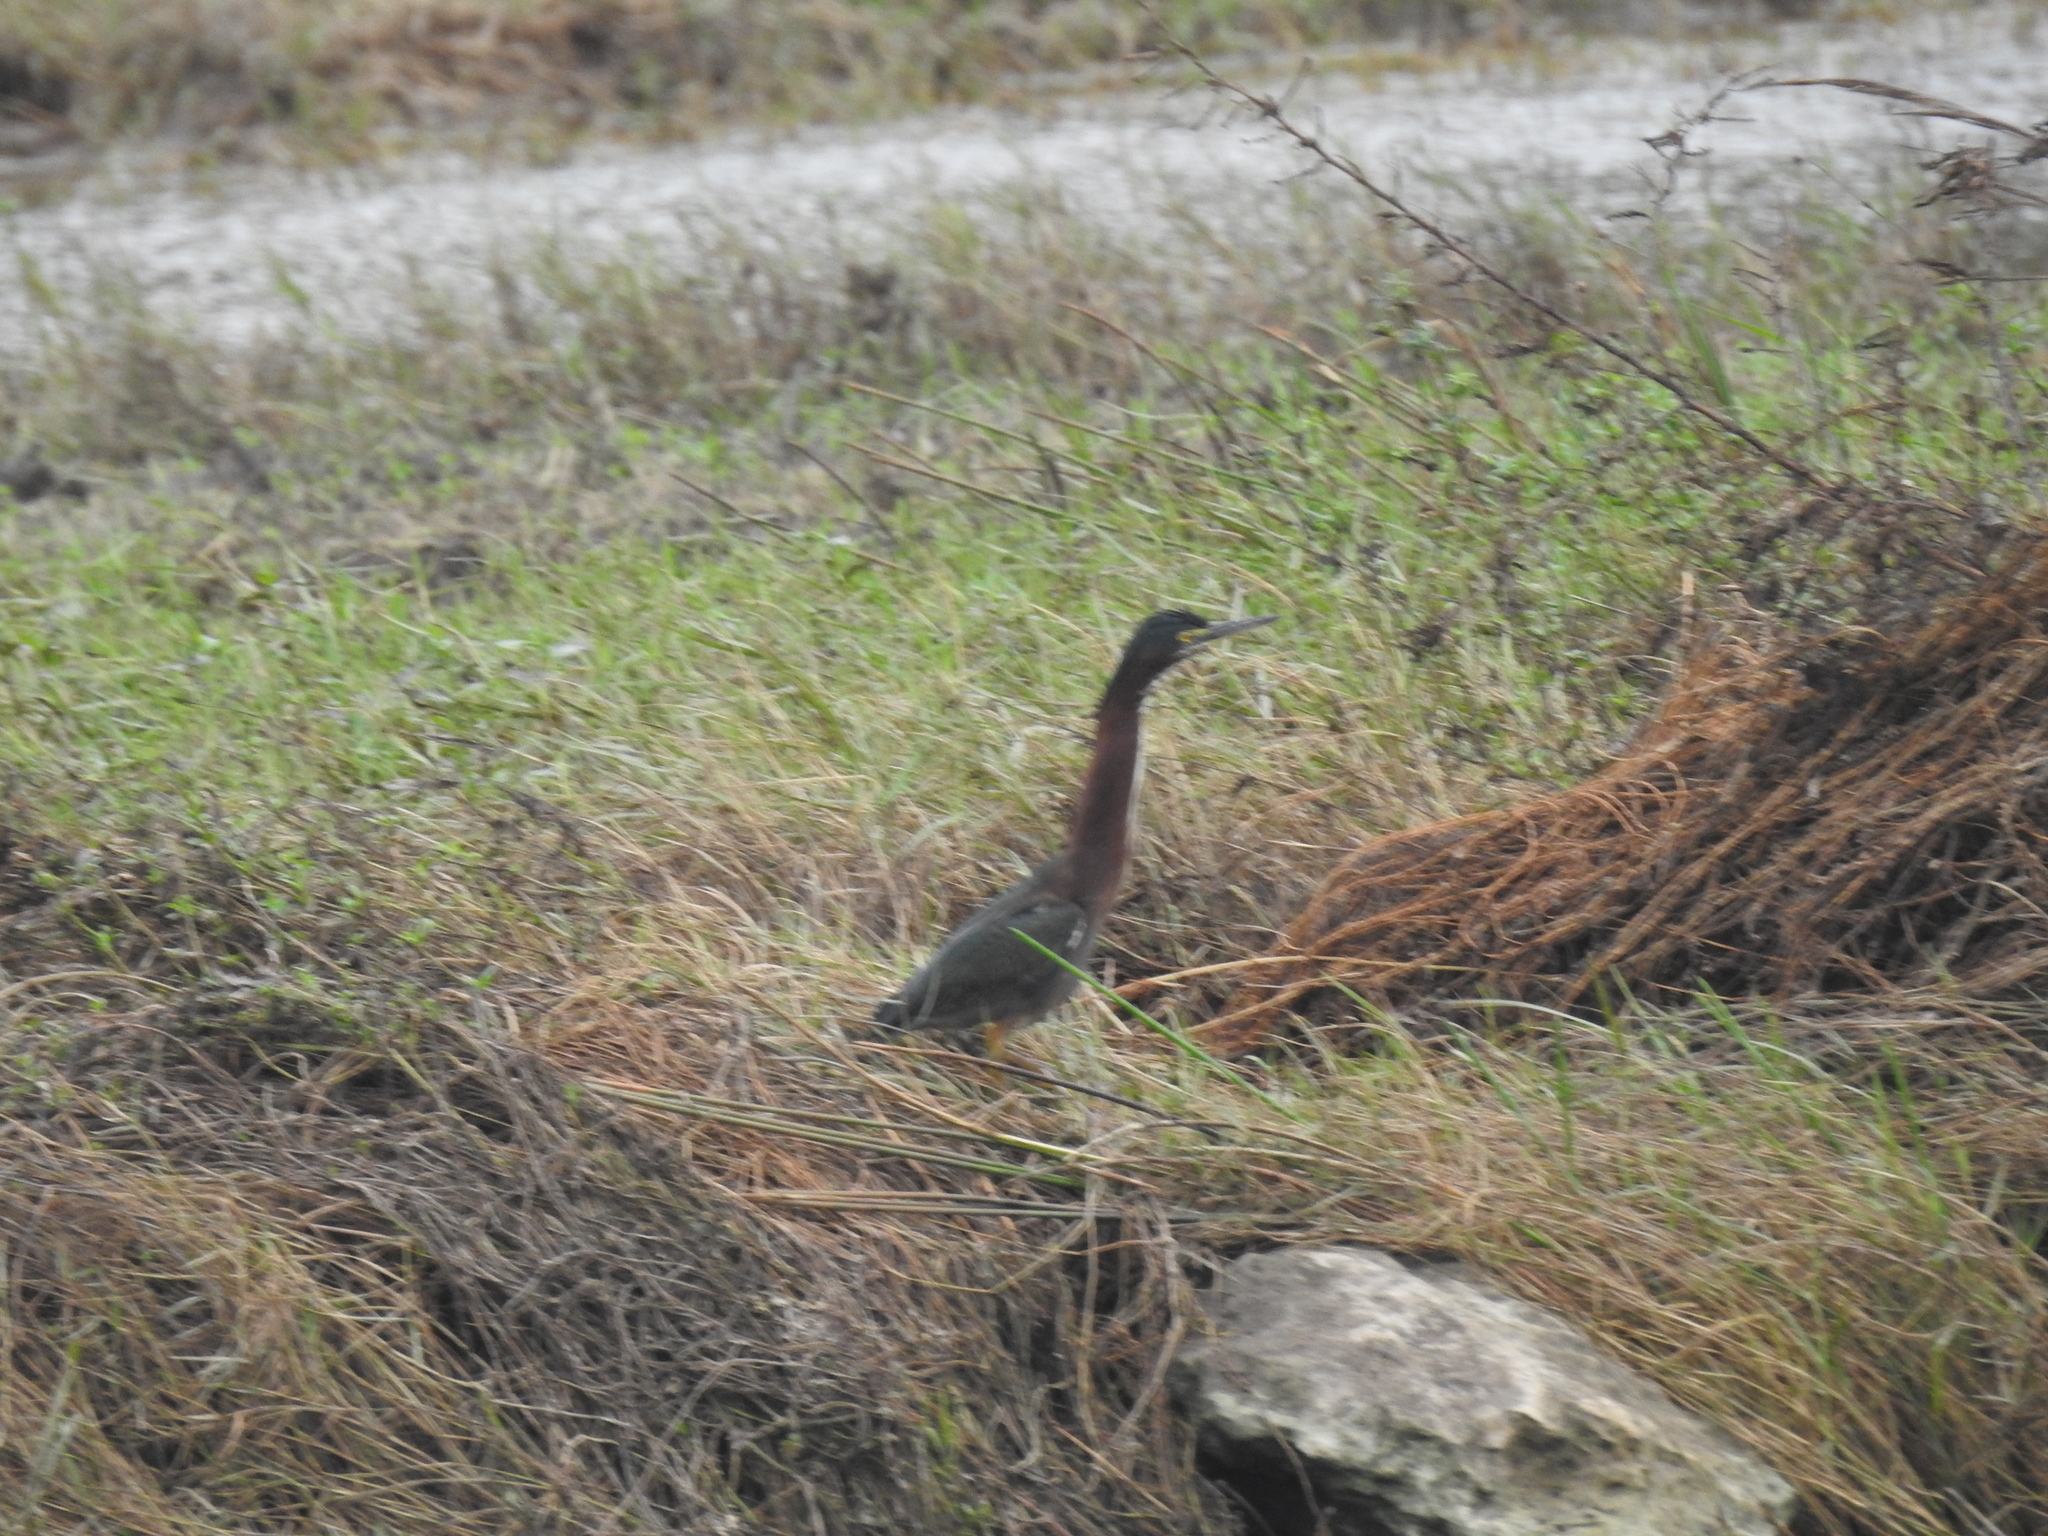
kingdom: Animalia
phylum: Chordata
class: Aves
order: Pelecaniformes
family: Ardeidae
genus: Butorides
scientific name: Butorides virescens
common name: Green heron
